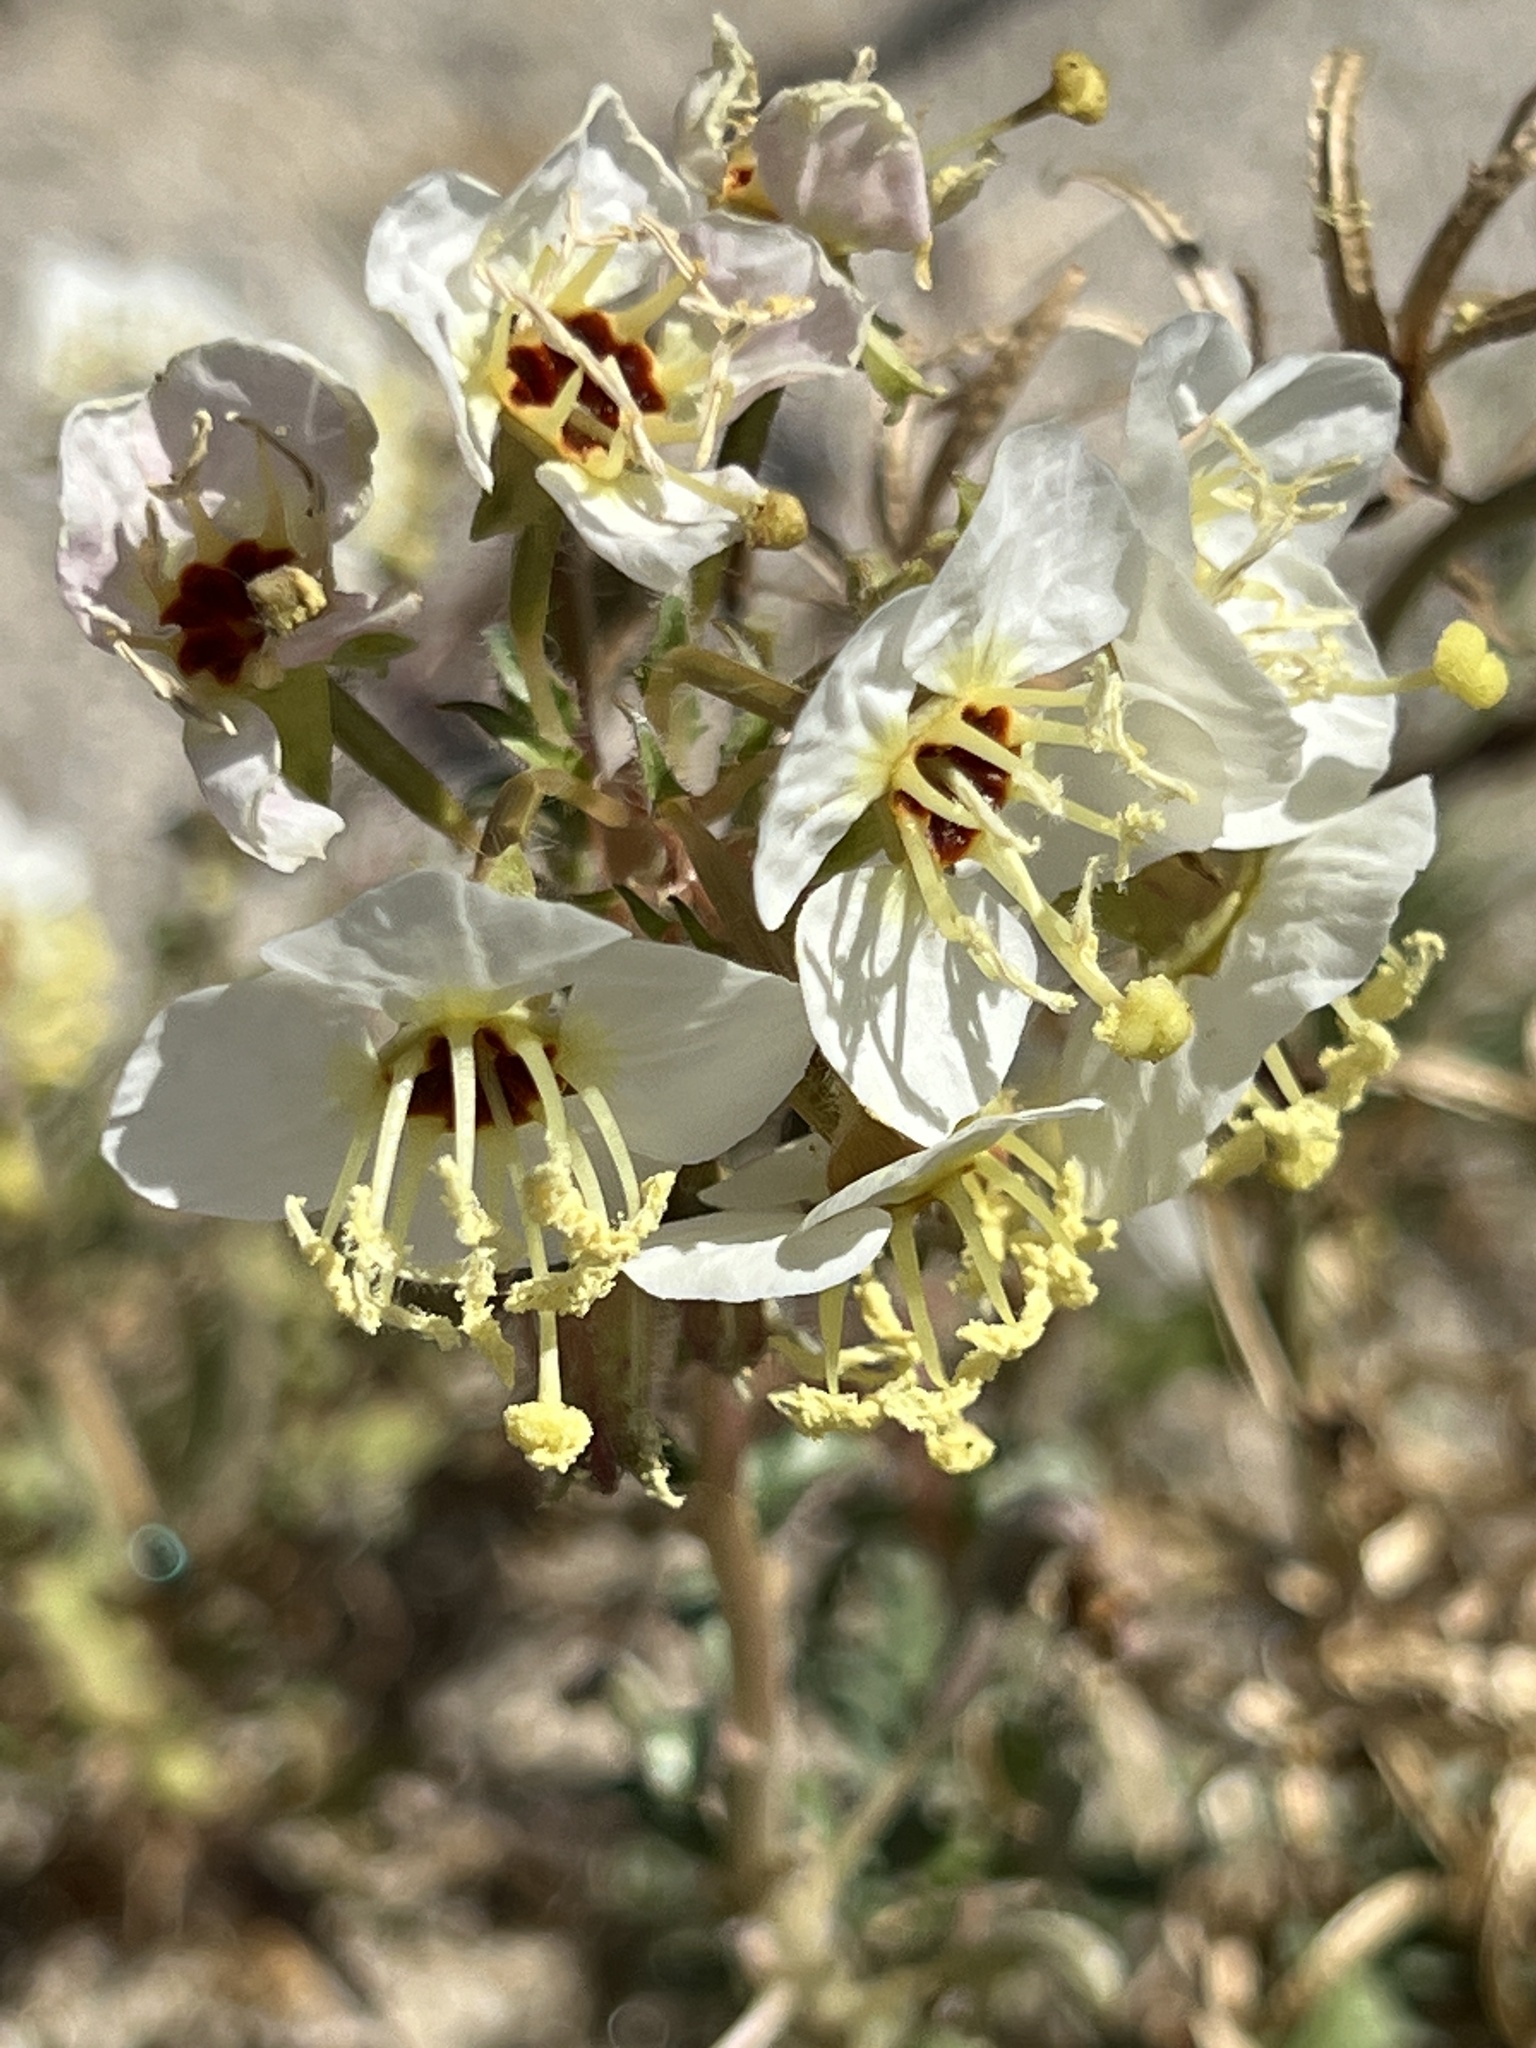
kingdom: Plantae
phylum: Tracheophyta
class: Magnoliopsida
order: Myrtales
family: Onagraceae
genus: Chylismia
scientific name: Chylismia claviformis
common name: Browneyes
